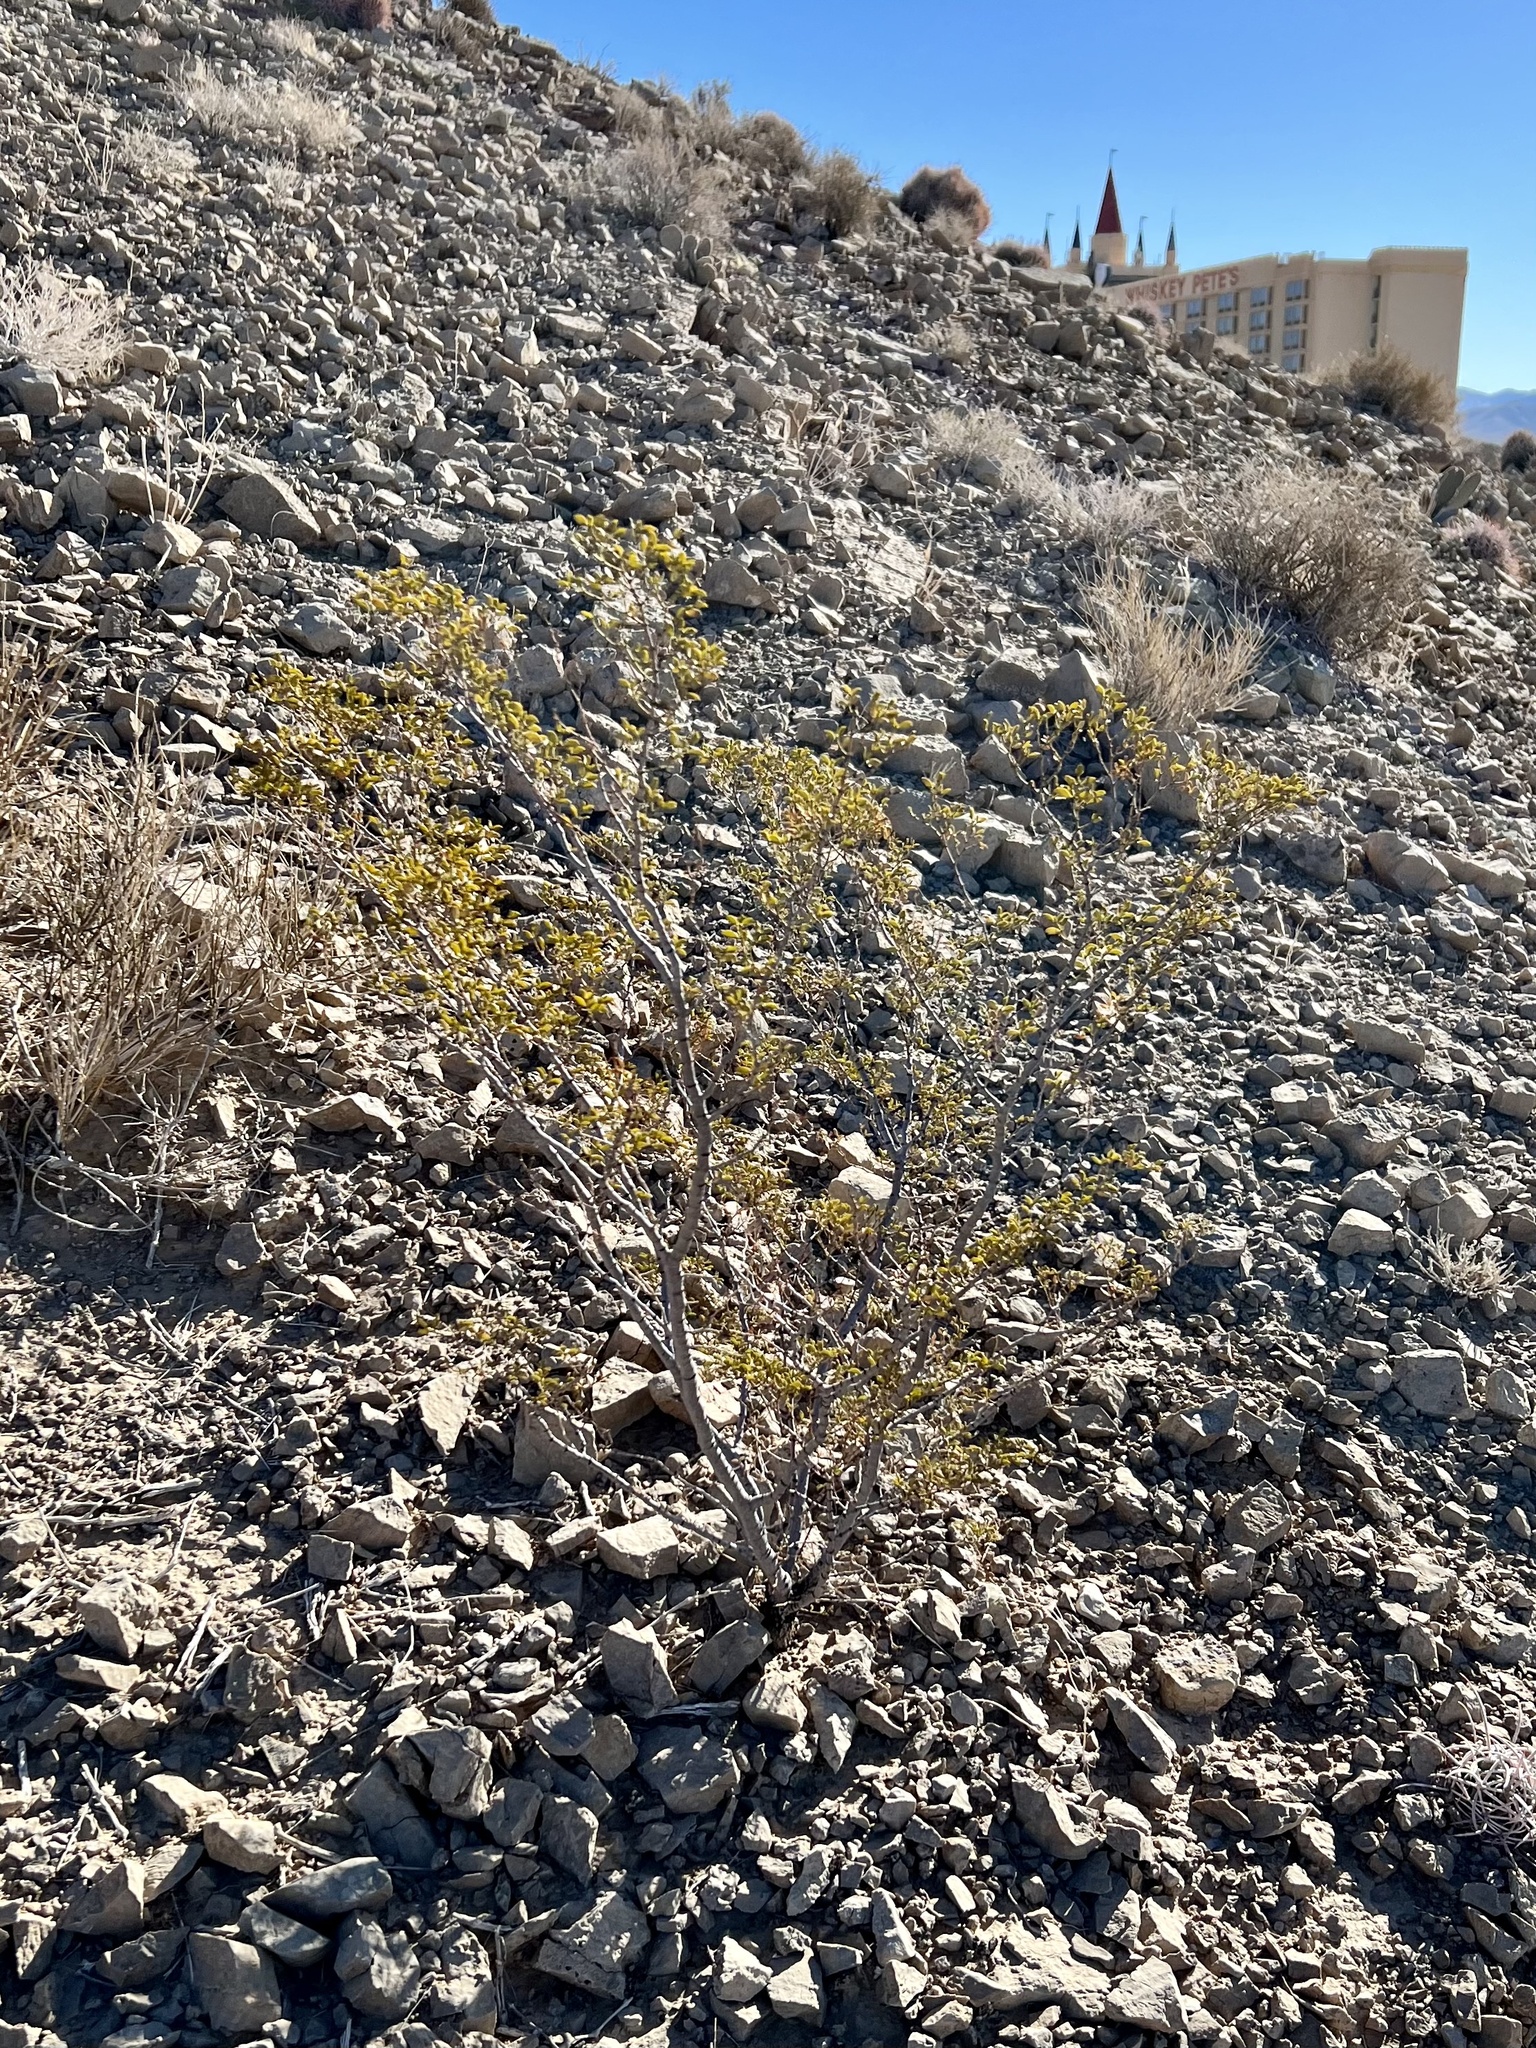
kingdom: Plantae
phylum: Tracheophyta
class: Magnoliopsida
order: Zygophyllales
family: Zygophyllaceae
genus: Larrea
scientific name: Larrea tridentata
